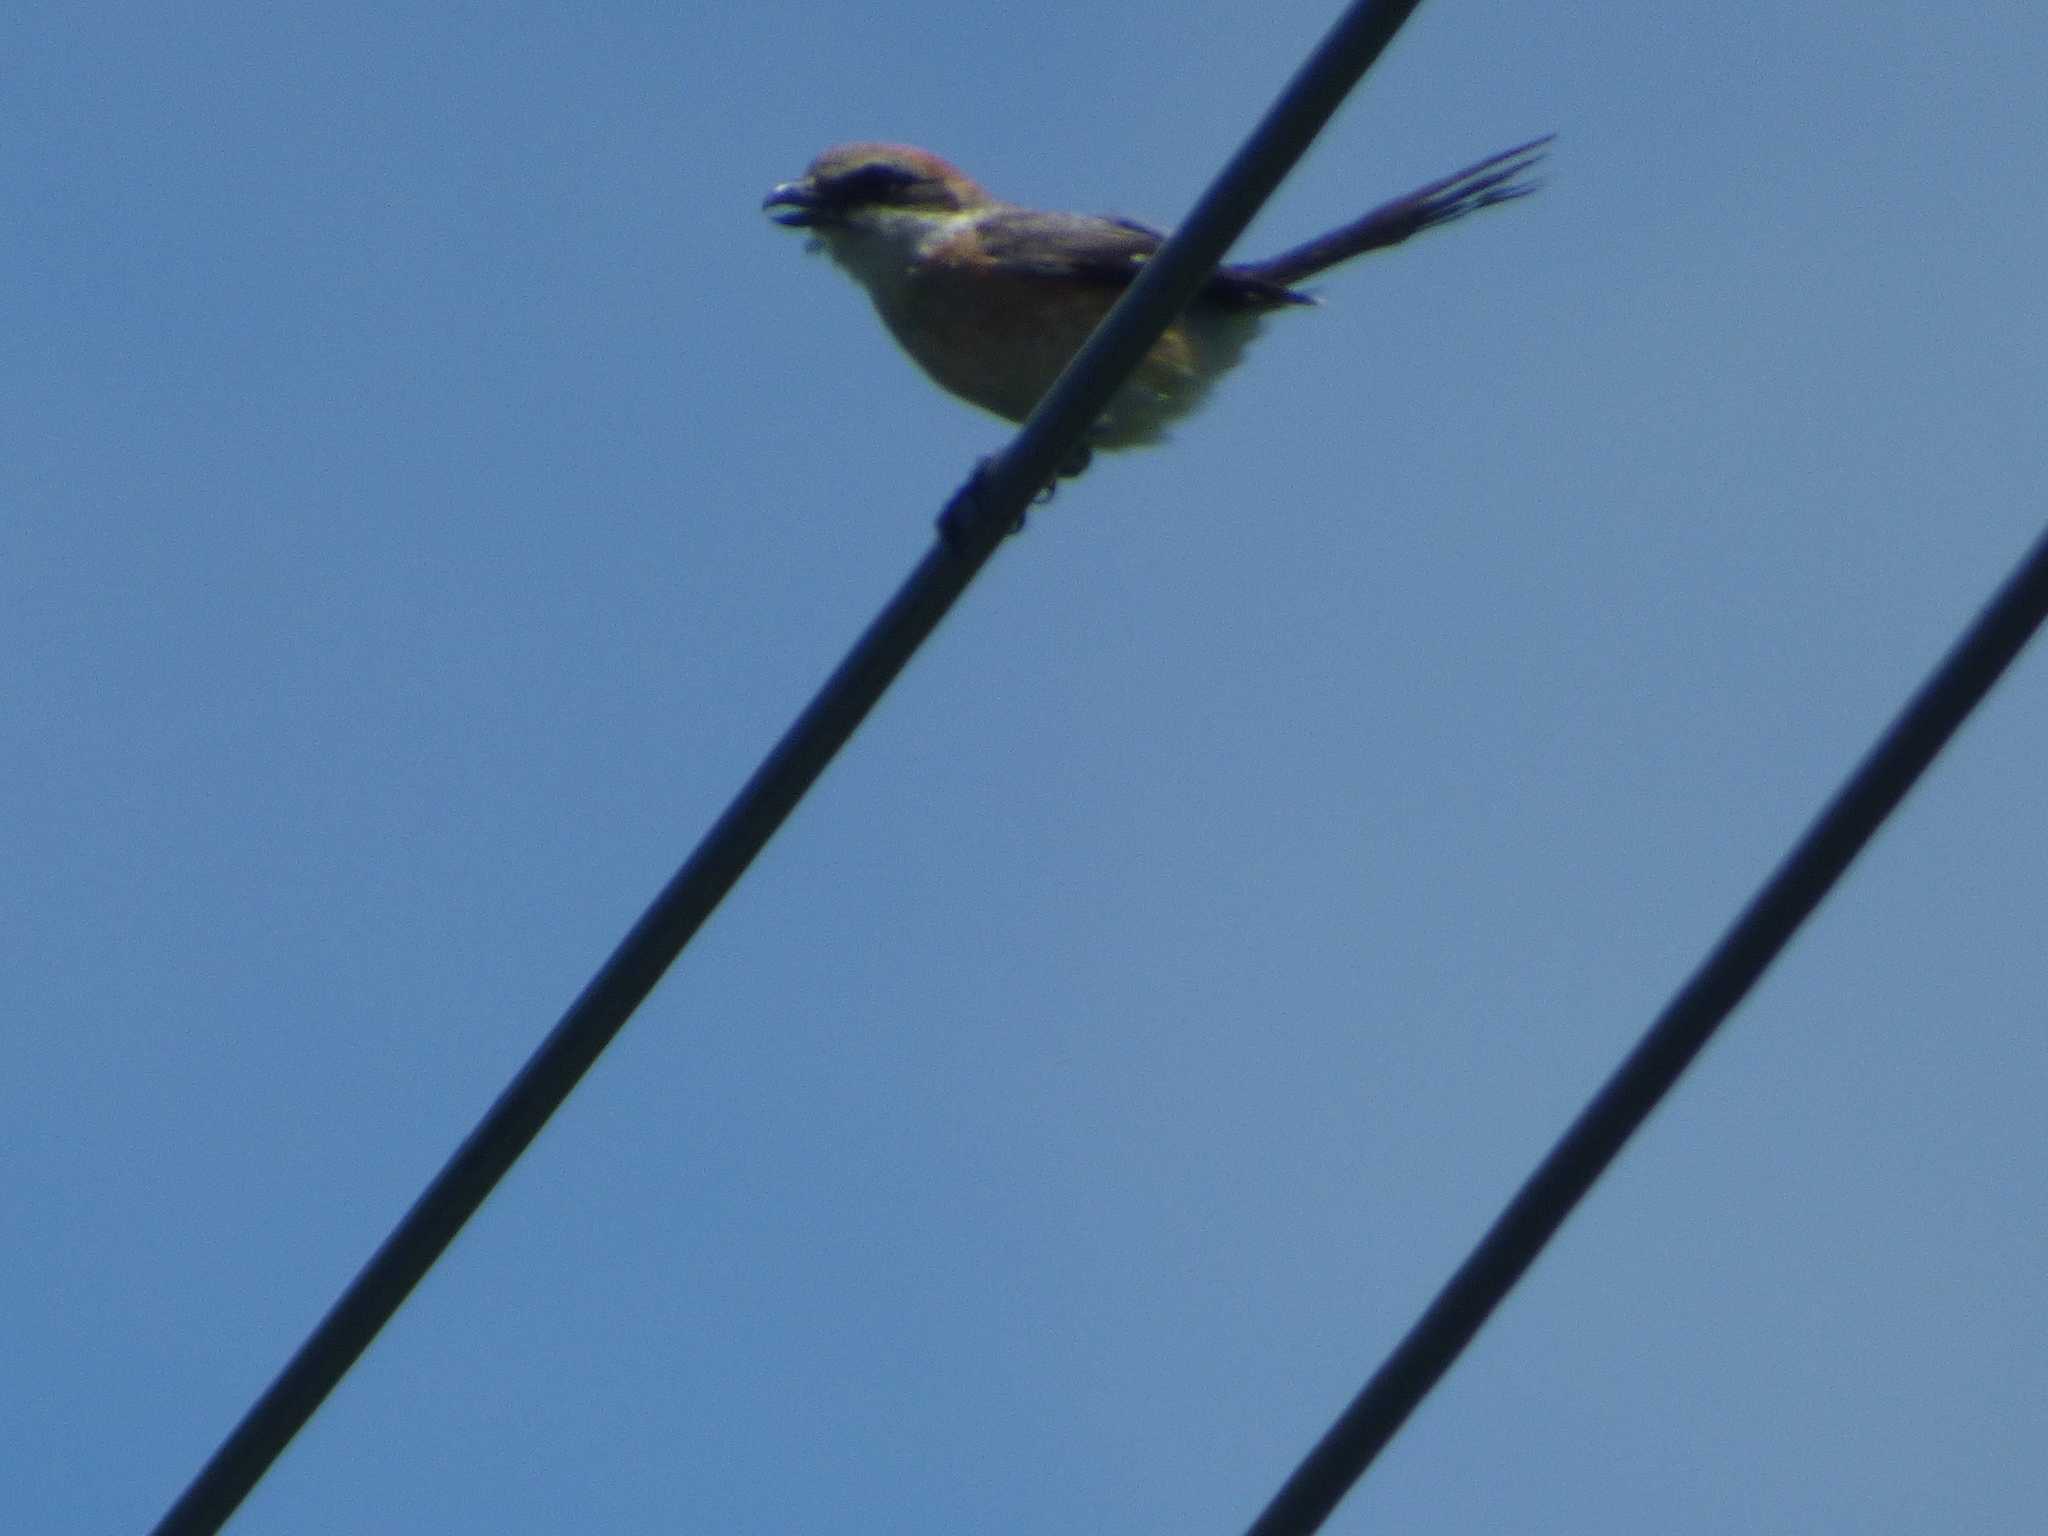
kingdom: Animalia
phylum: Chordata
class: Aves
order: Passeriformes
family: Laniidae
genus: Lanius
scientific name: Lanius bucephalus
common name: Bull-headed shrike
